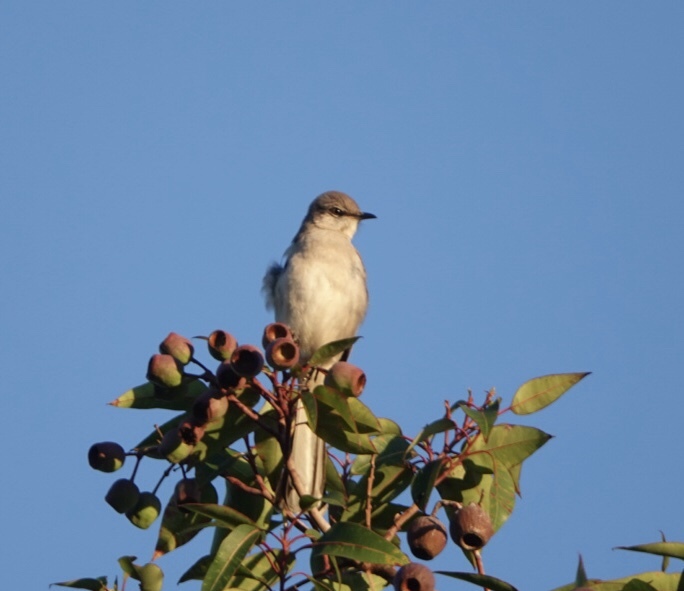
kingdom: Animalia
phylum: Chordata
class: Aves
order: Passeriformes
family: Mimidae
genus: Mimus
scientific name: Mimus polyglottos
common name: Northern mockingbird
